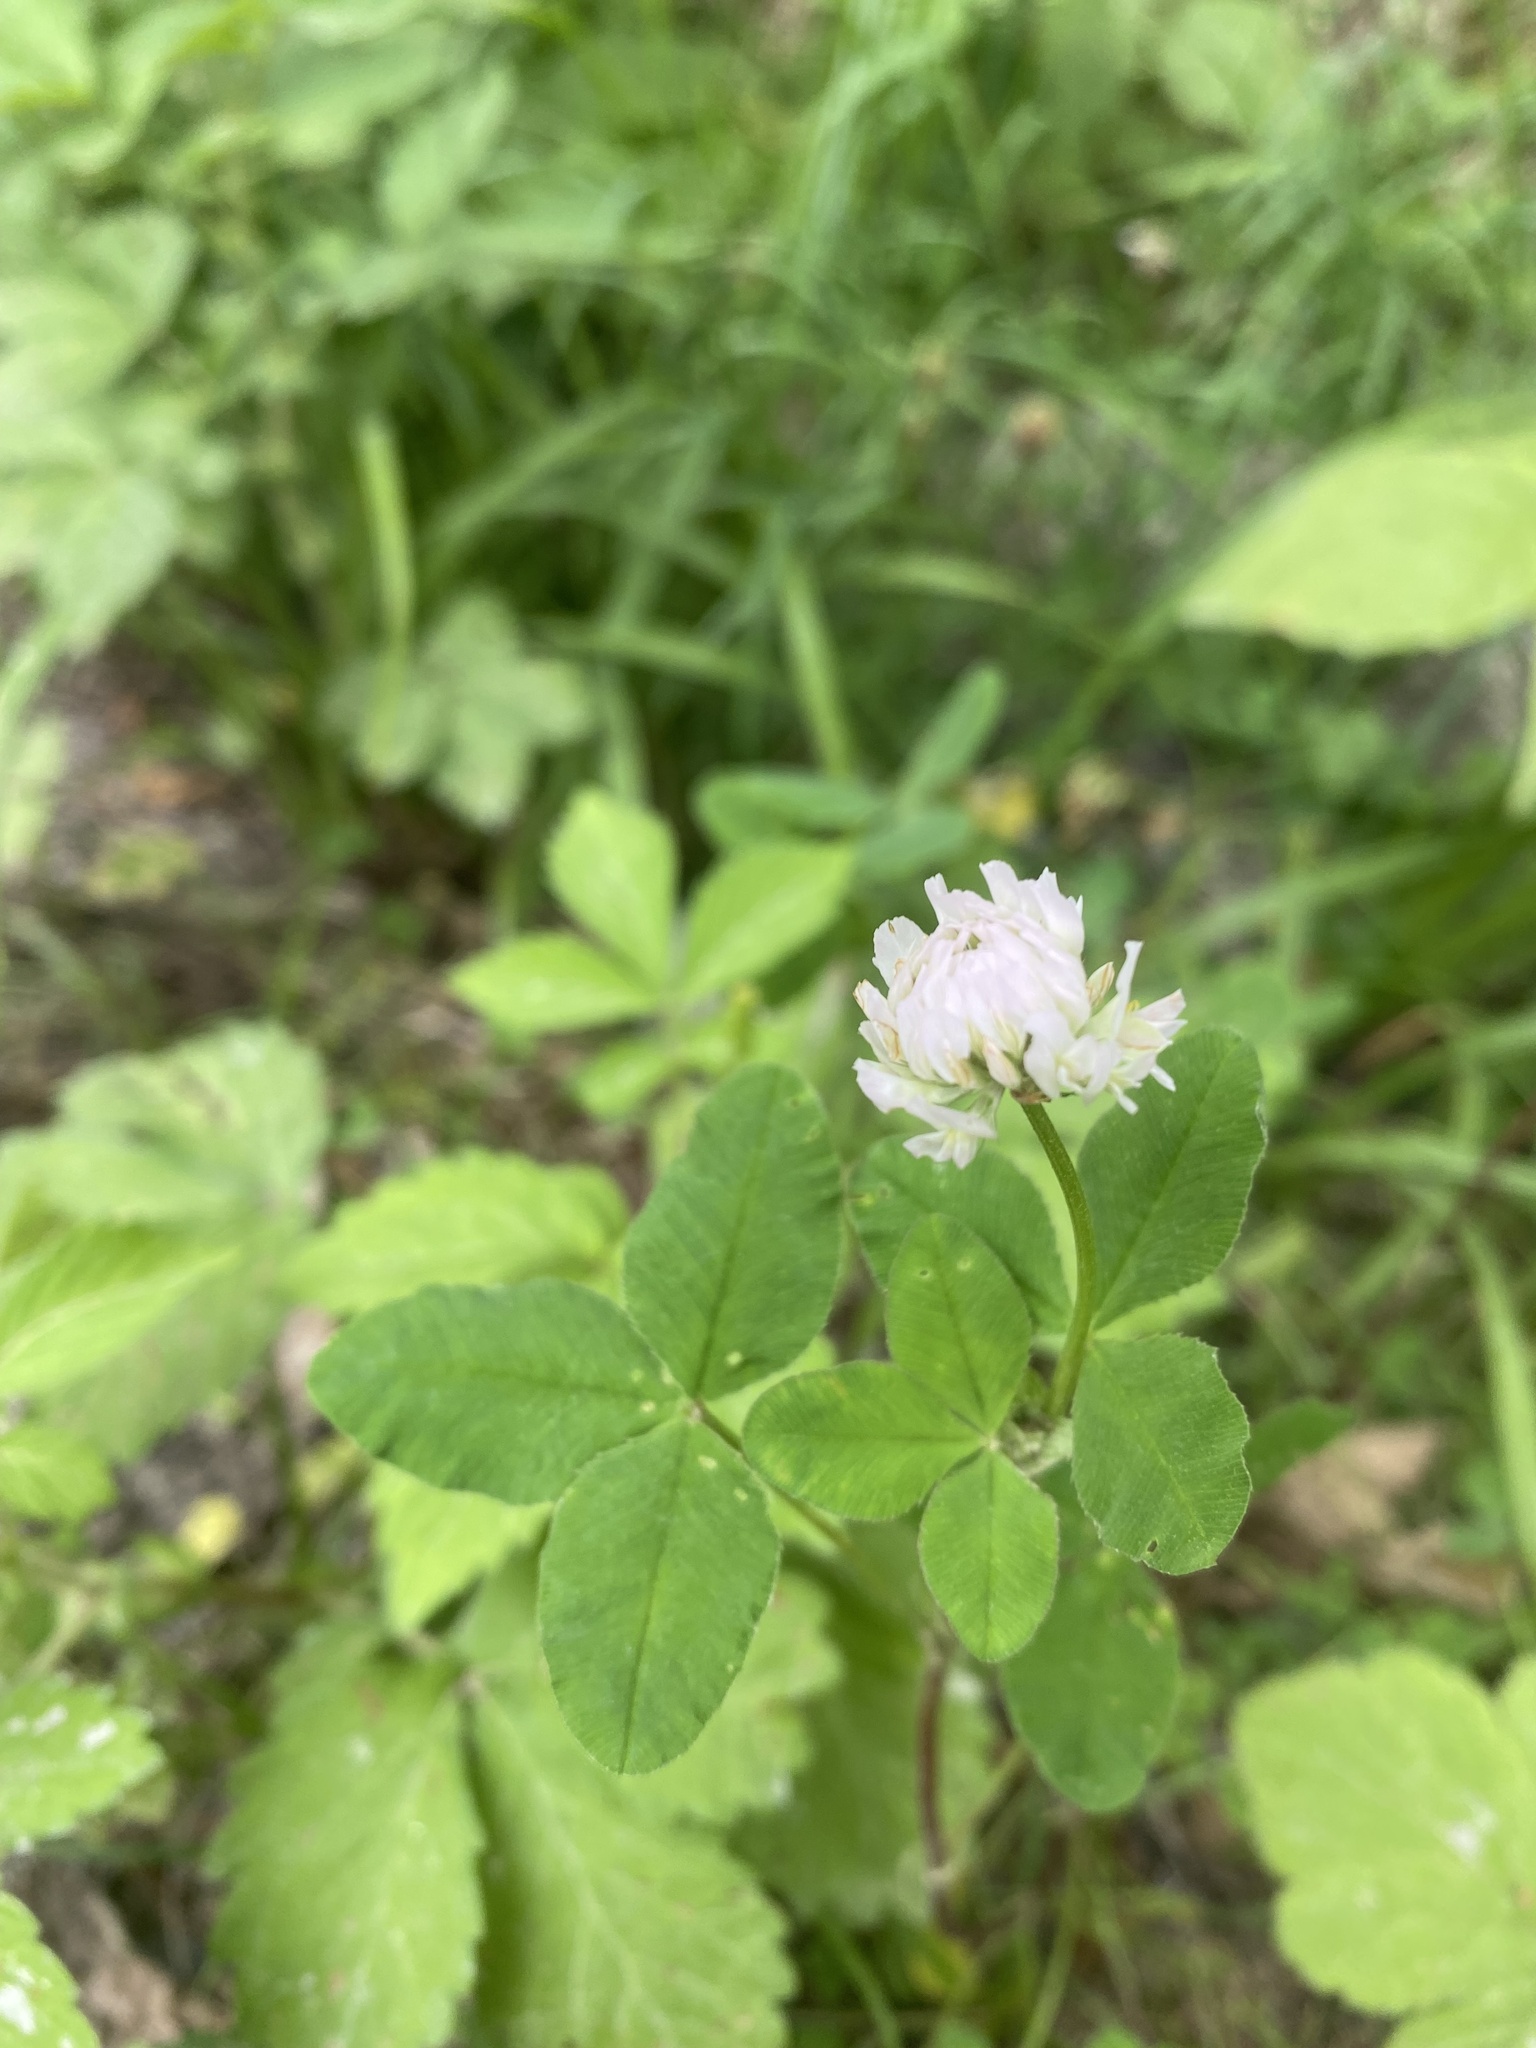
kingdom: Plantae
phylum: Tracheophyta
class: Magnoliopsida
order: Fabales
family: Fabaceae
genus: Trifolium
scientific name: Trifolium hybridum
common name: Alsike clover
